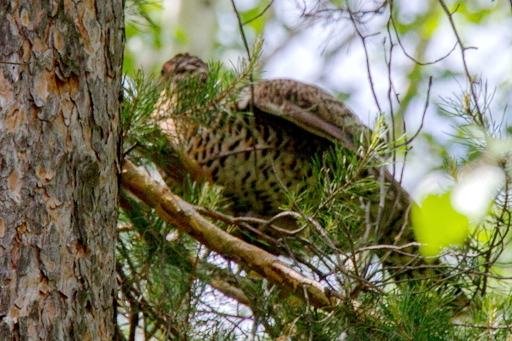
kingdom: Animalia
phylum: Chordata
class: Aves
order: Galliformes
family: Phasianidae
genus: Tetrao
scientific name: Tetrao urogallus
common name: Western capercaillie
